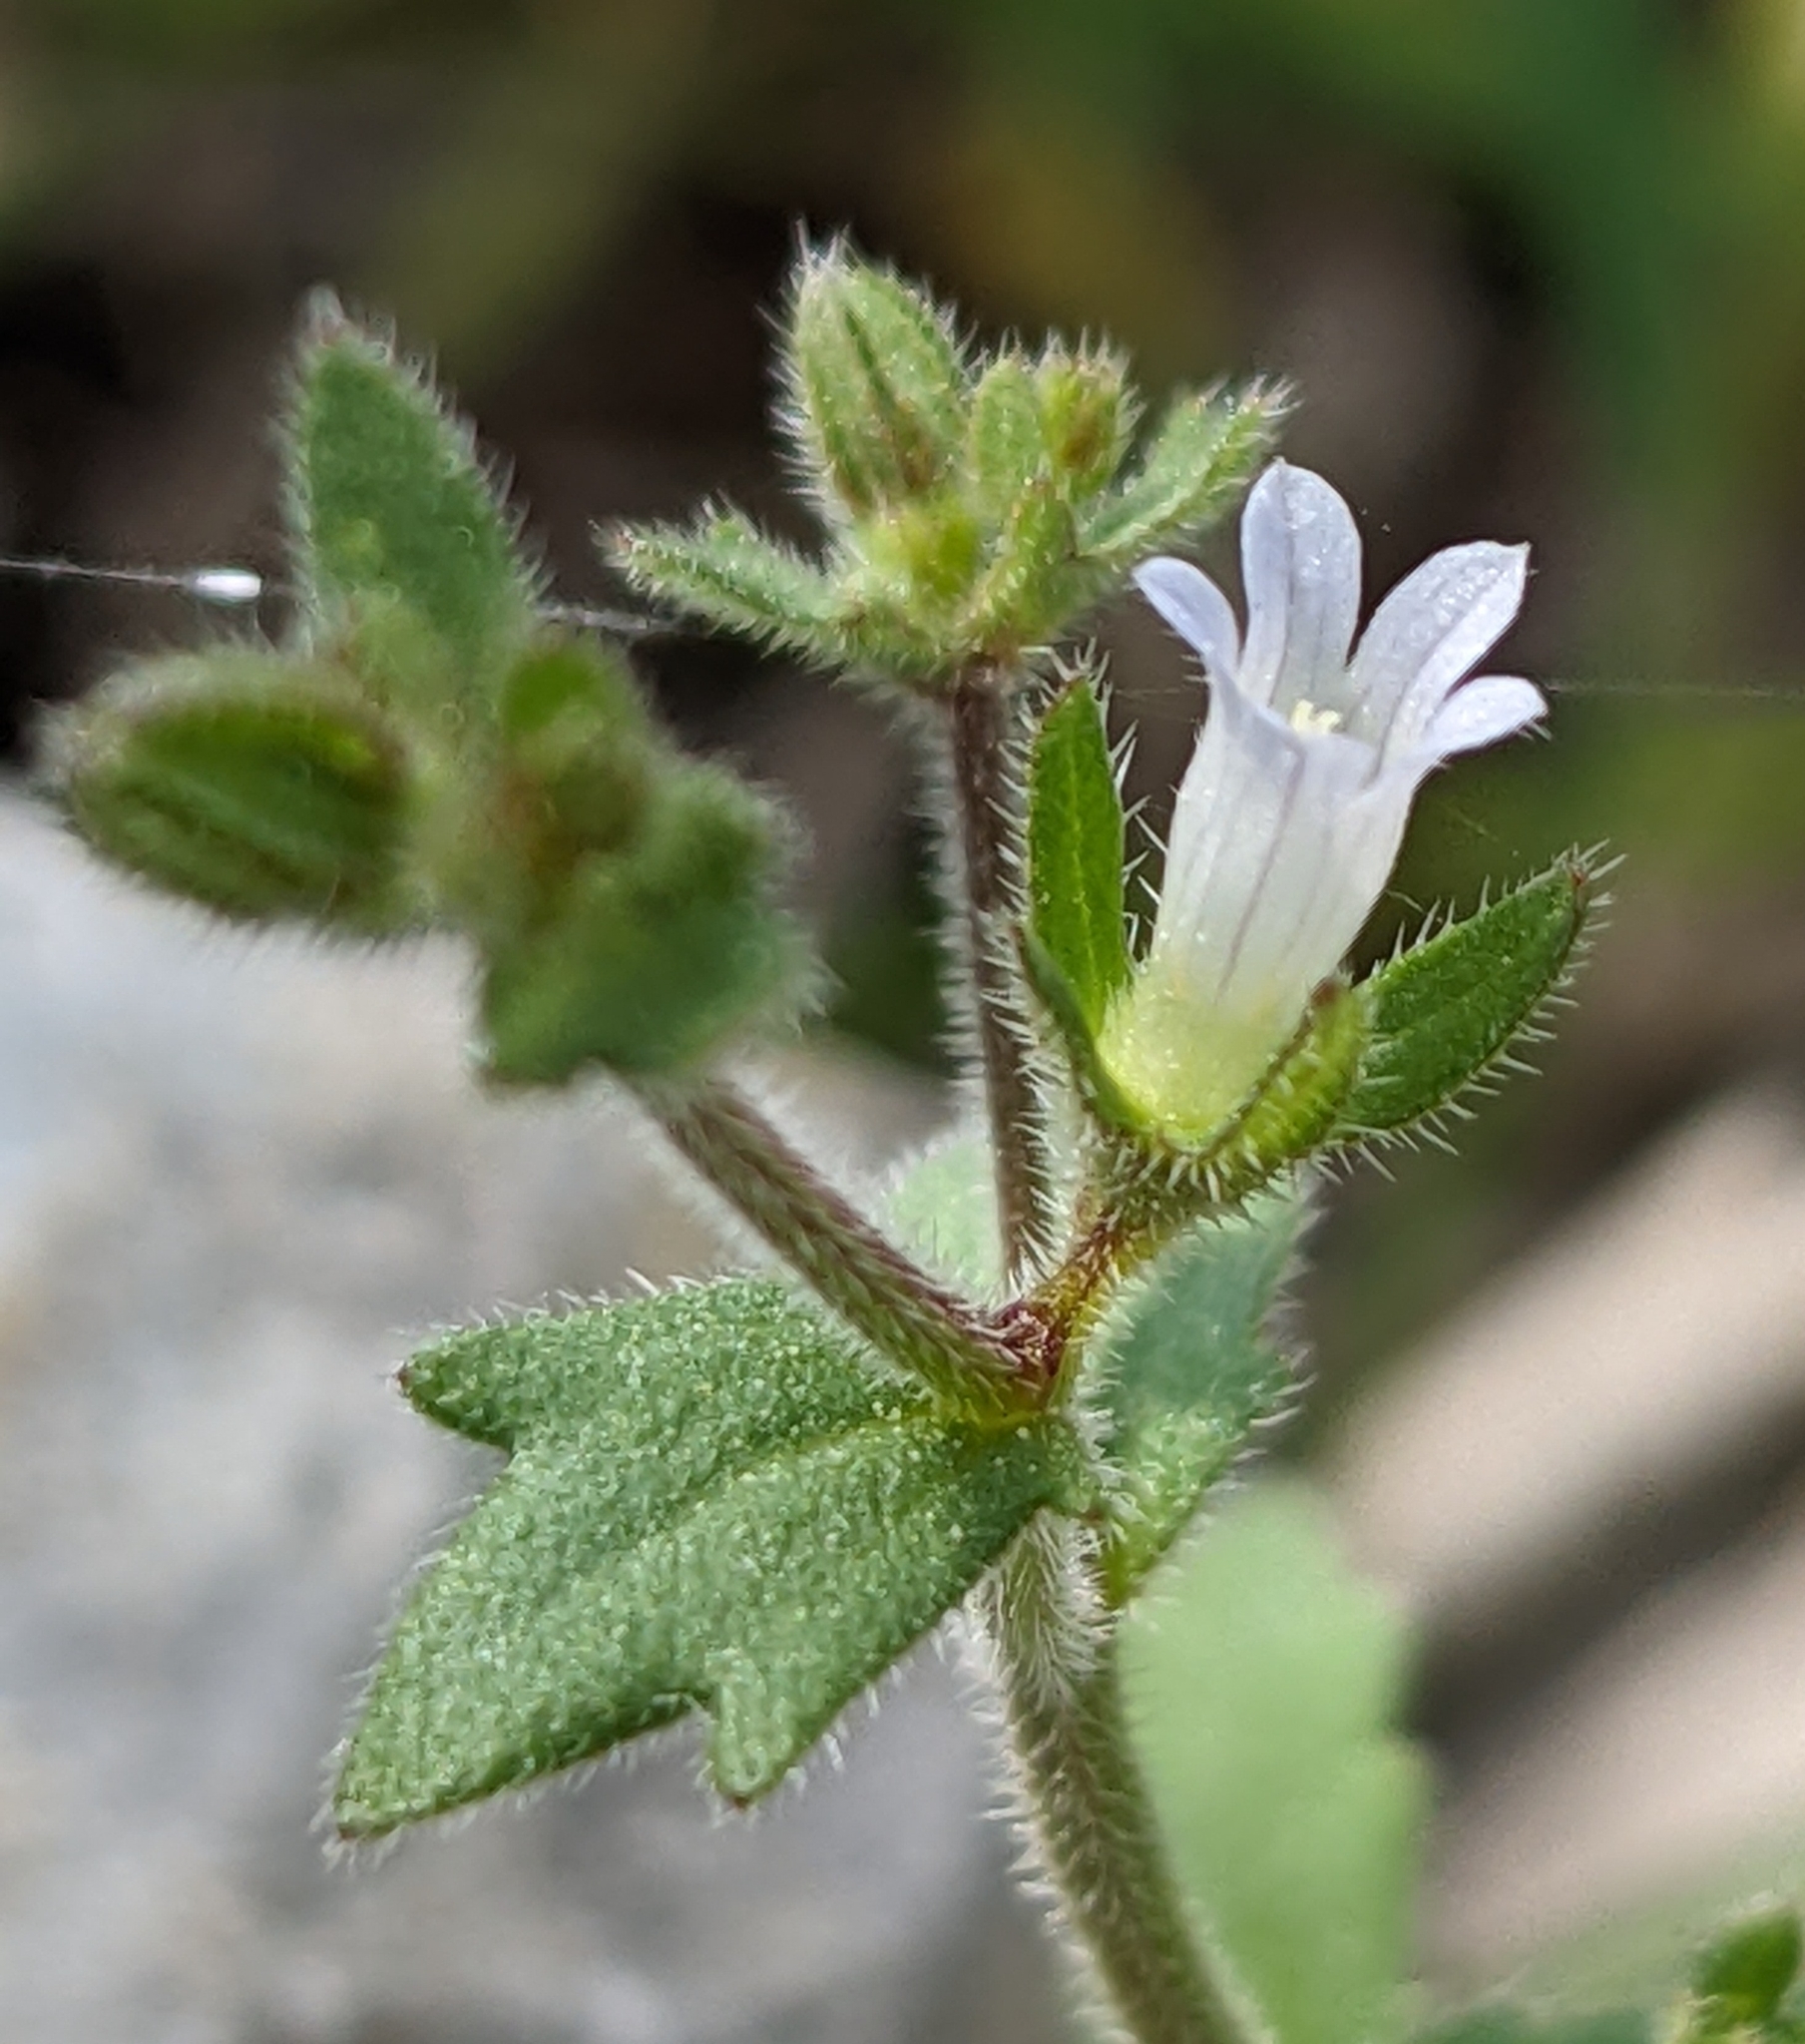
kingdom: Plantae
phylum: Tracheophyta
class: Magnoliopsida
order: Asterales
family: Campanulaceae
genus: Campanula
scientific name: Campanula erinus
